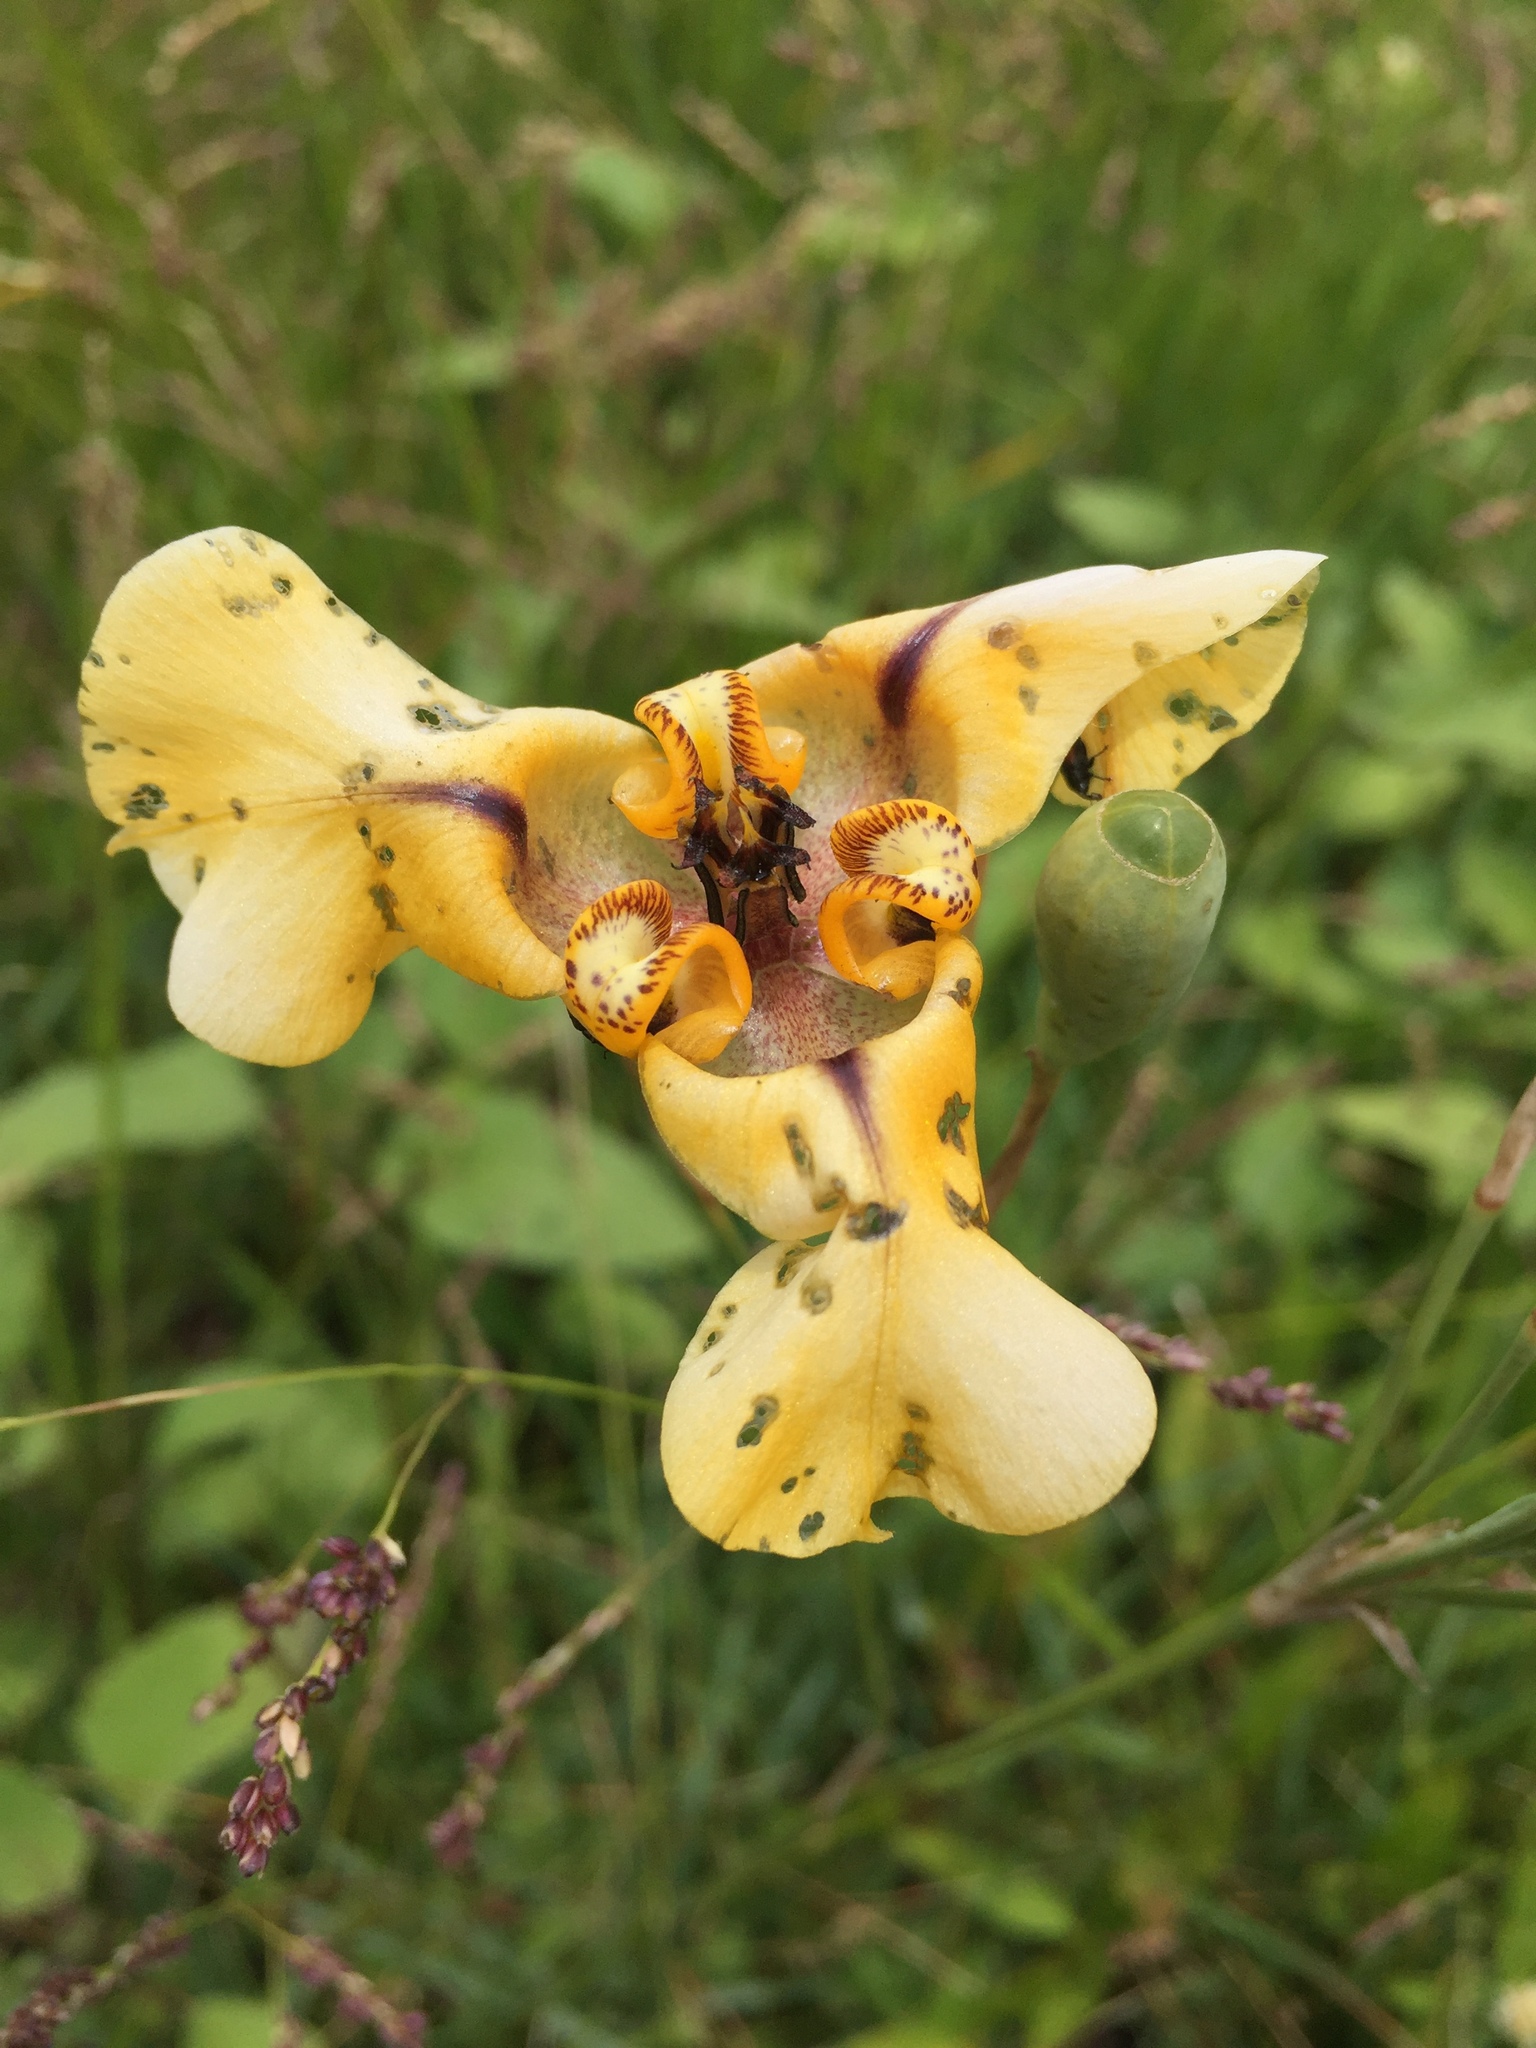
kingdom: Plantae
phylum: Tracheophyta
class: Liliopsida
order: Asparagales
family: Iridaceae
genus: Cypella
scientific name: Cypella herbertii
